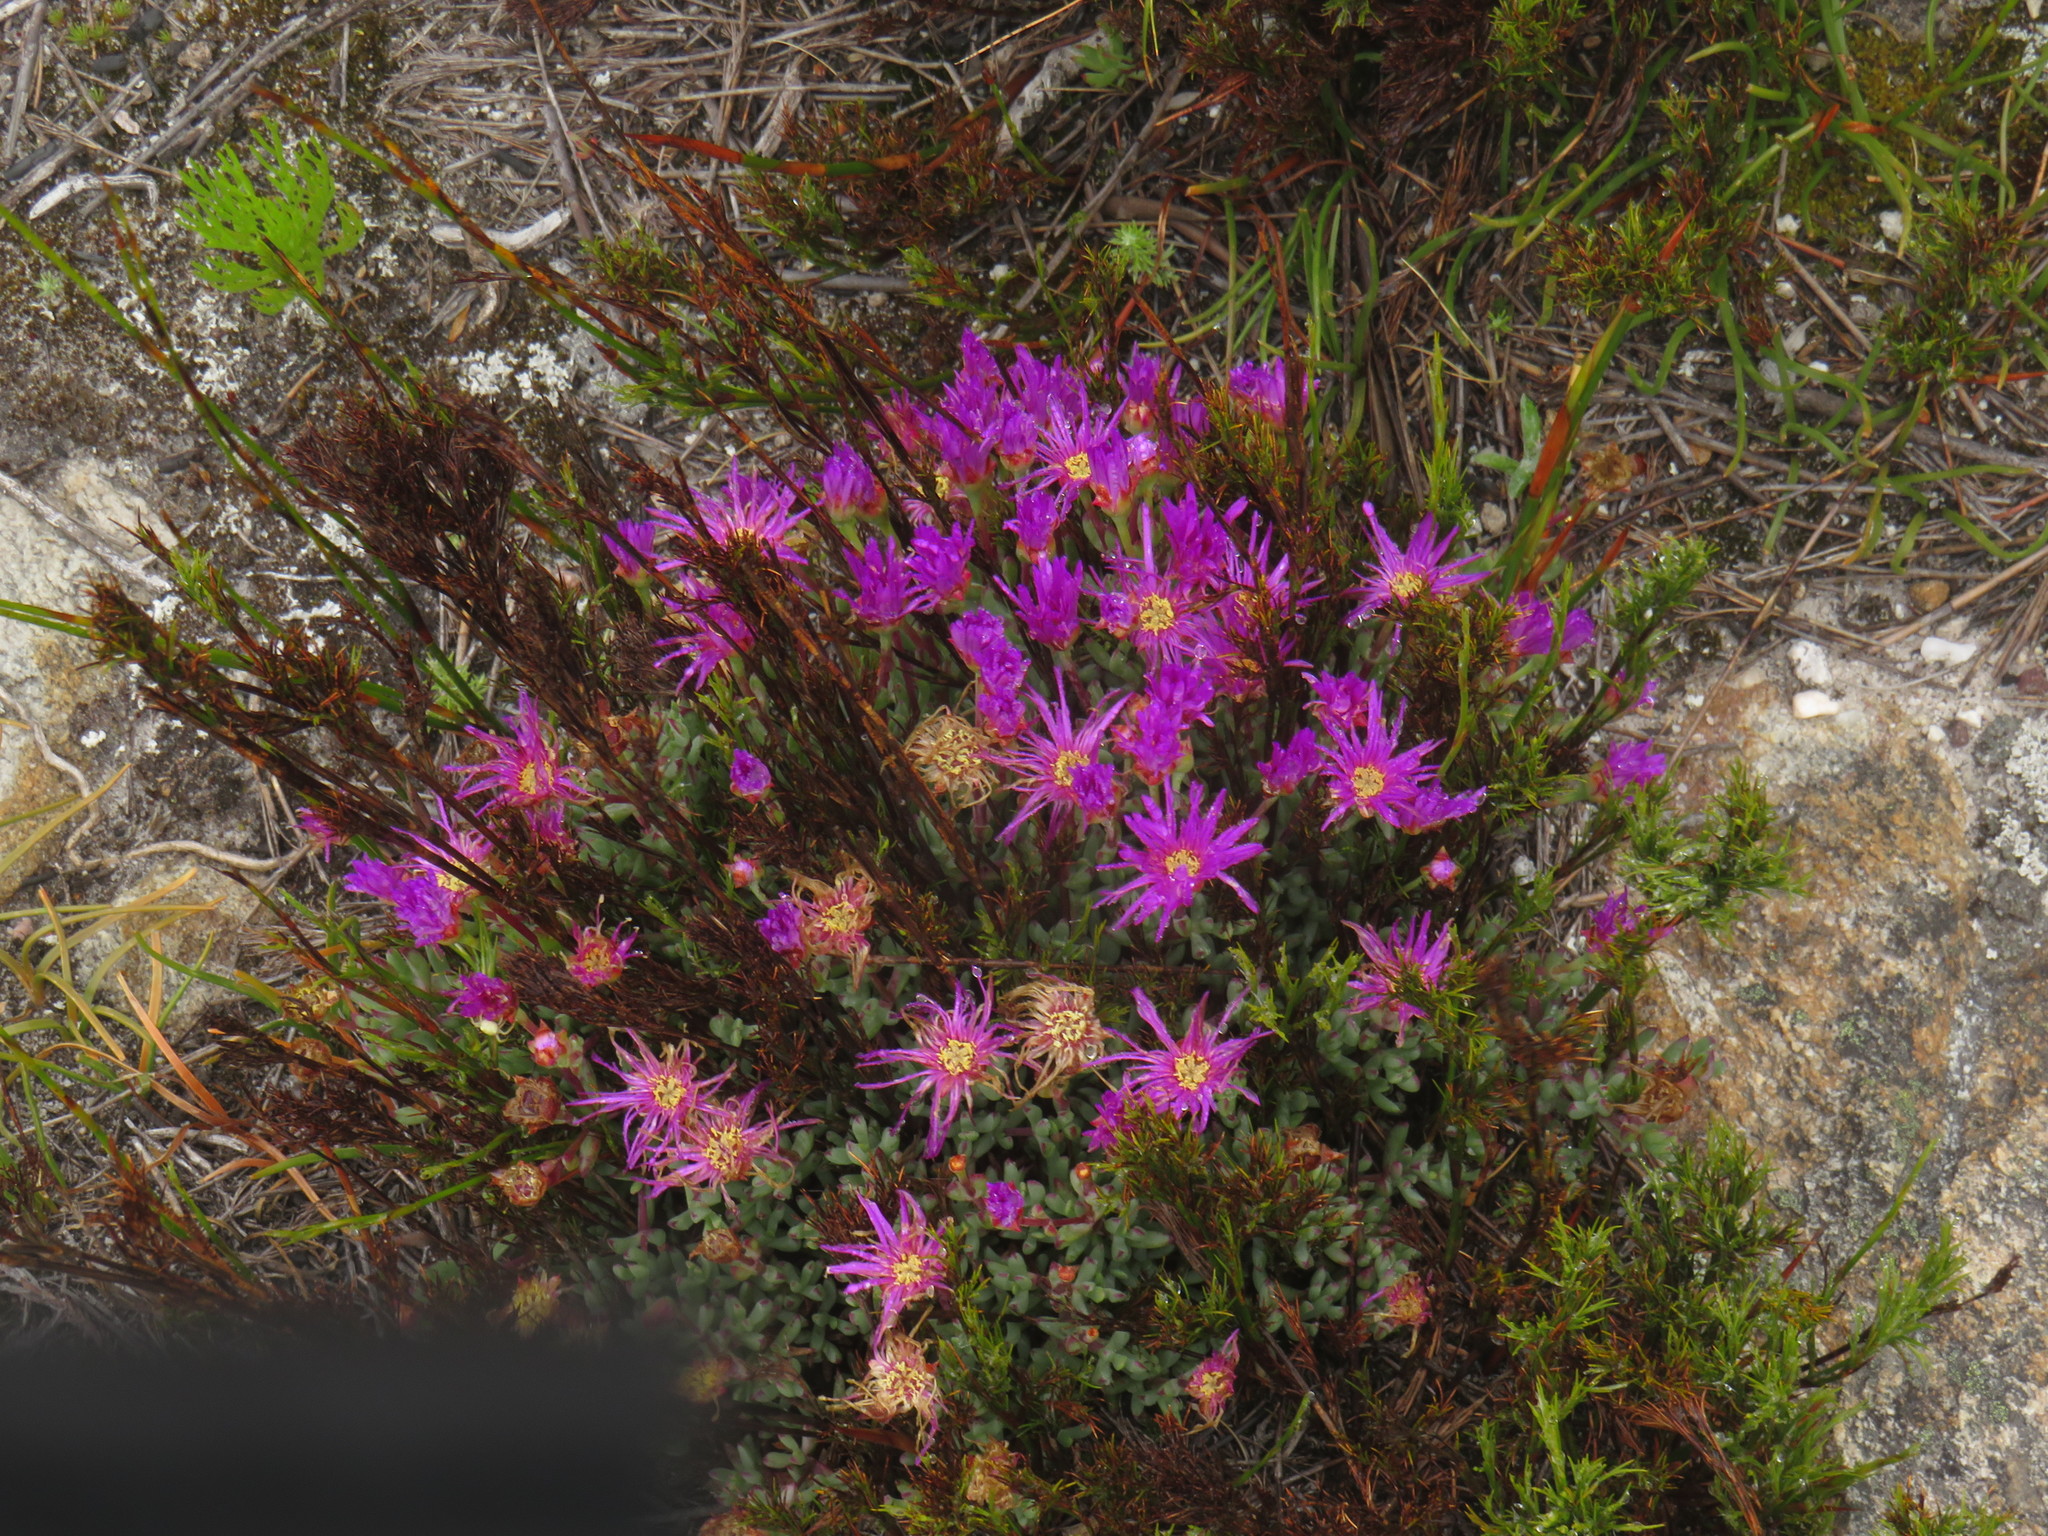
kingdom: Plantae
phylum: Tracheophyta
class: Magnoliopsida
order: Caryophyllales
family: Aizoaceae
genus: Lampranthus
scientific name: Lampranthus emarginatus
